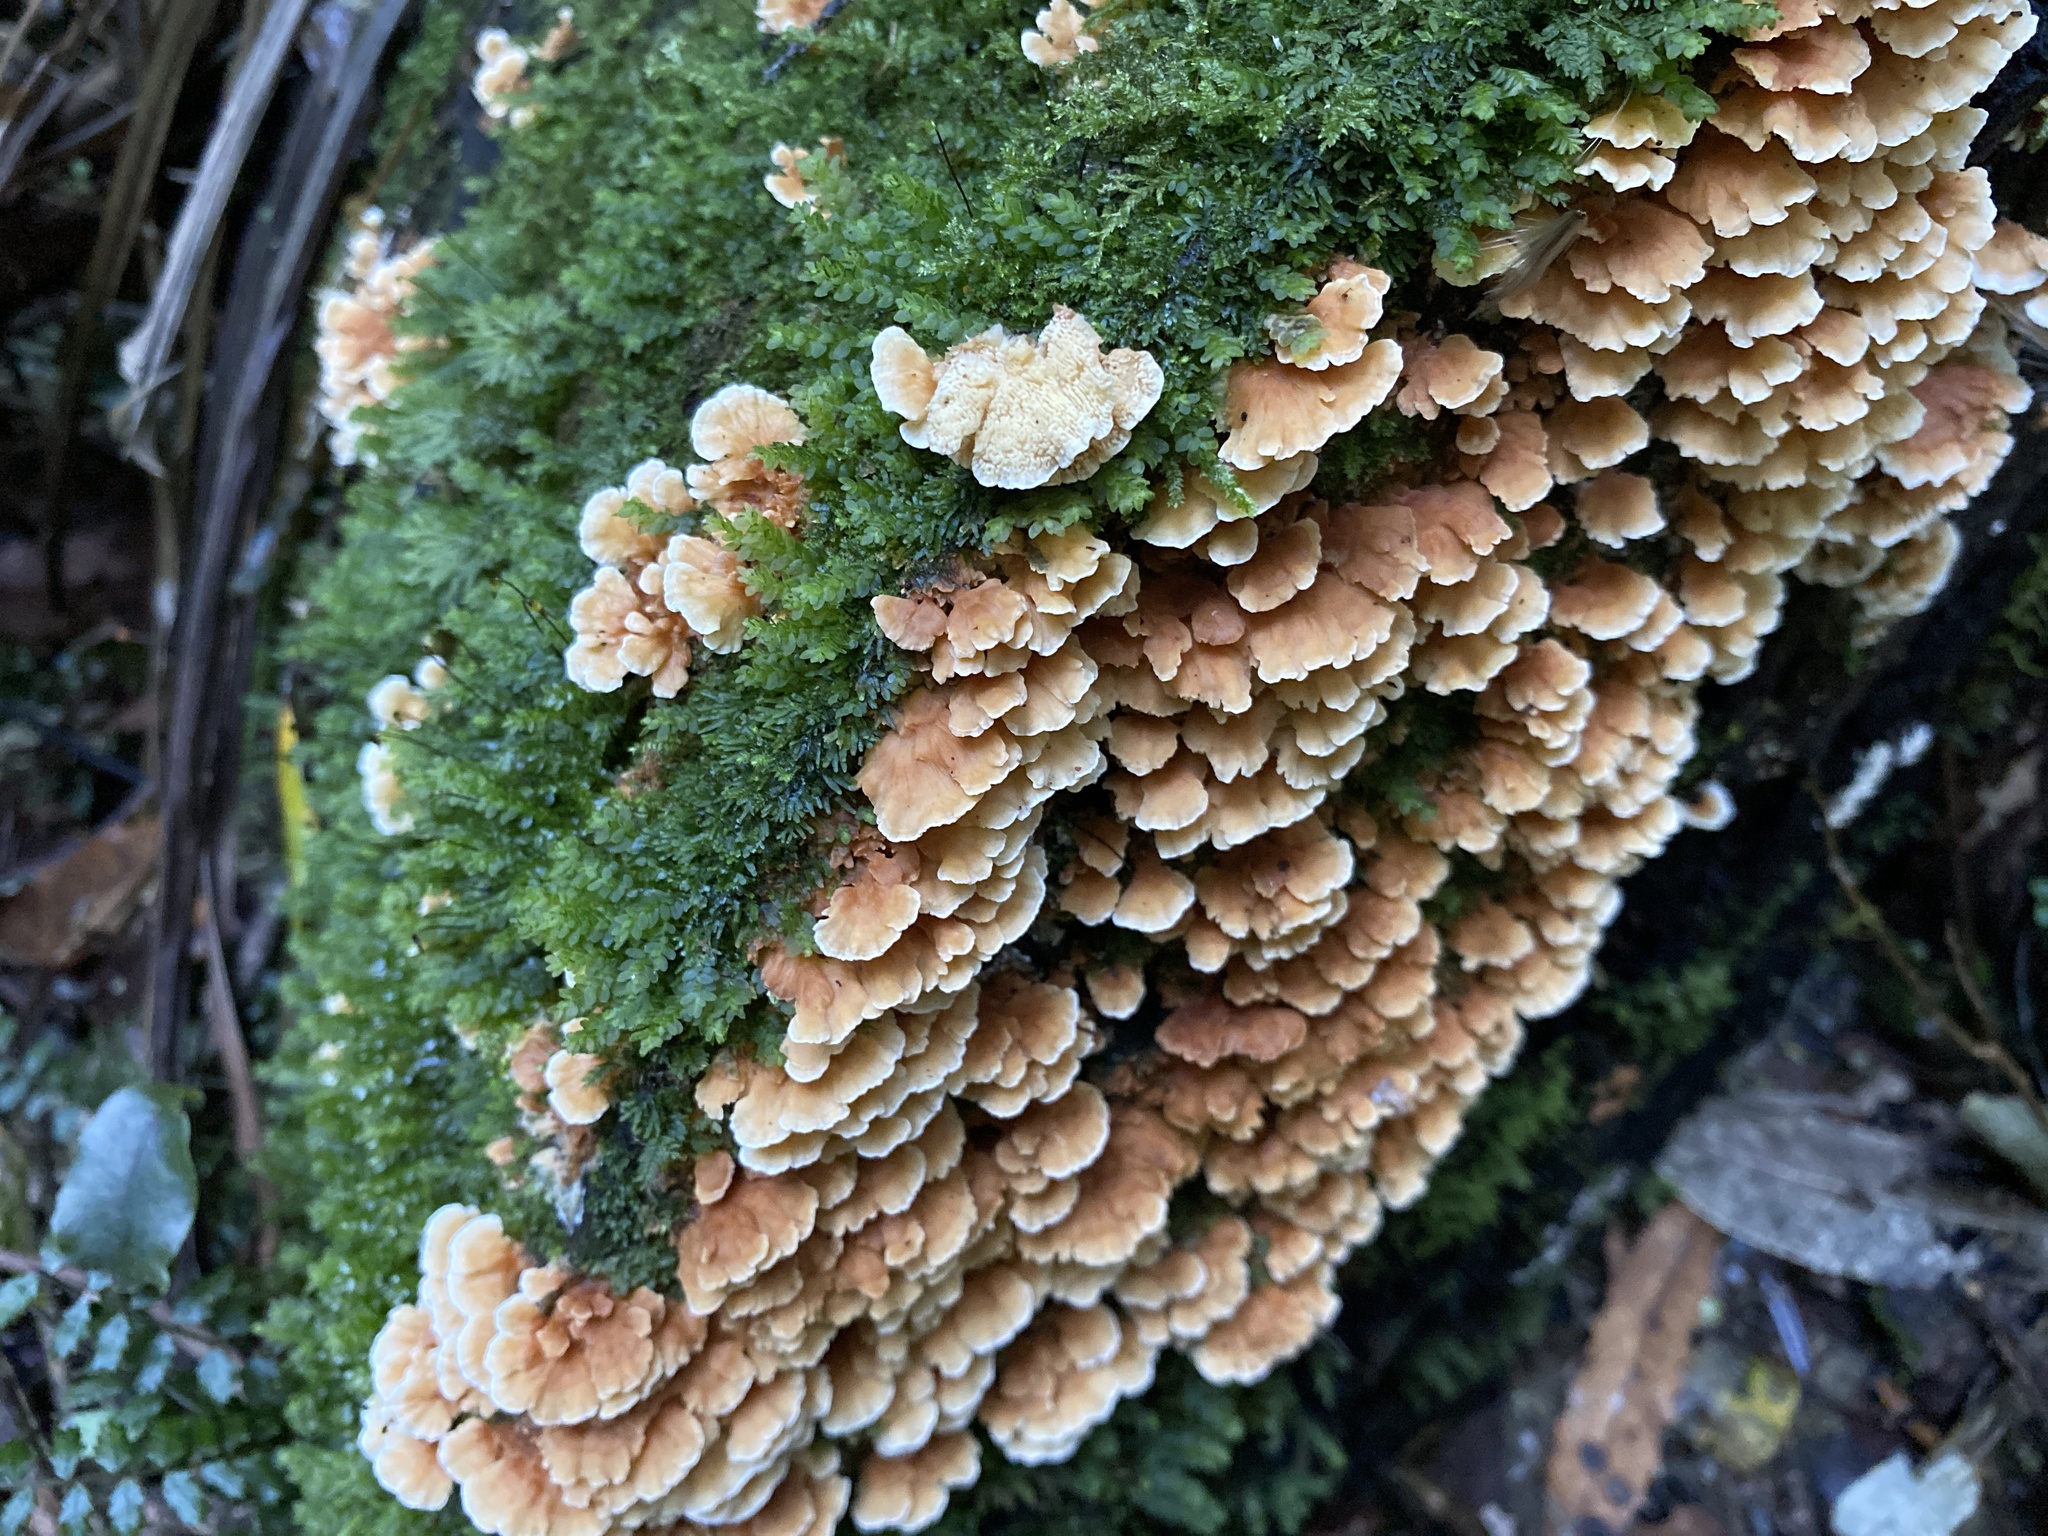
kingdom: Fungi
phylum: Basidiomycota
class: Agaricomycetes
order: Polyporales
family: Cerrenaceae
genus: Cerrena
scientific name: Cerrena zonata
